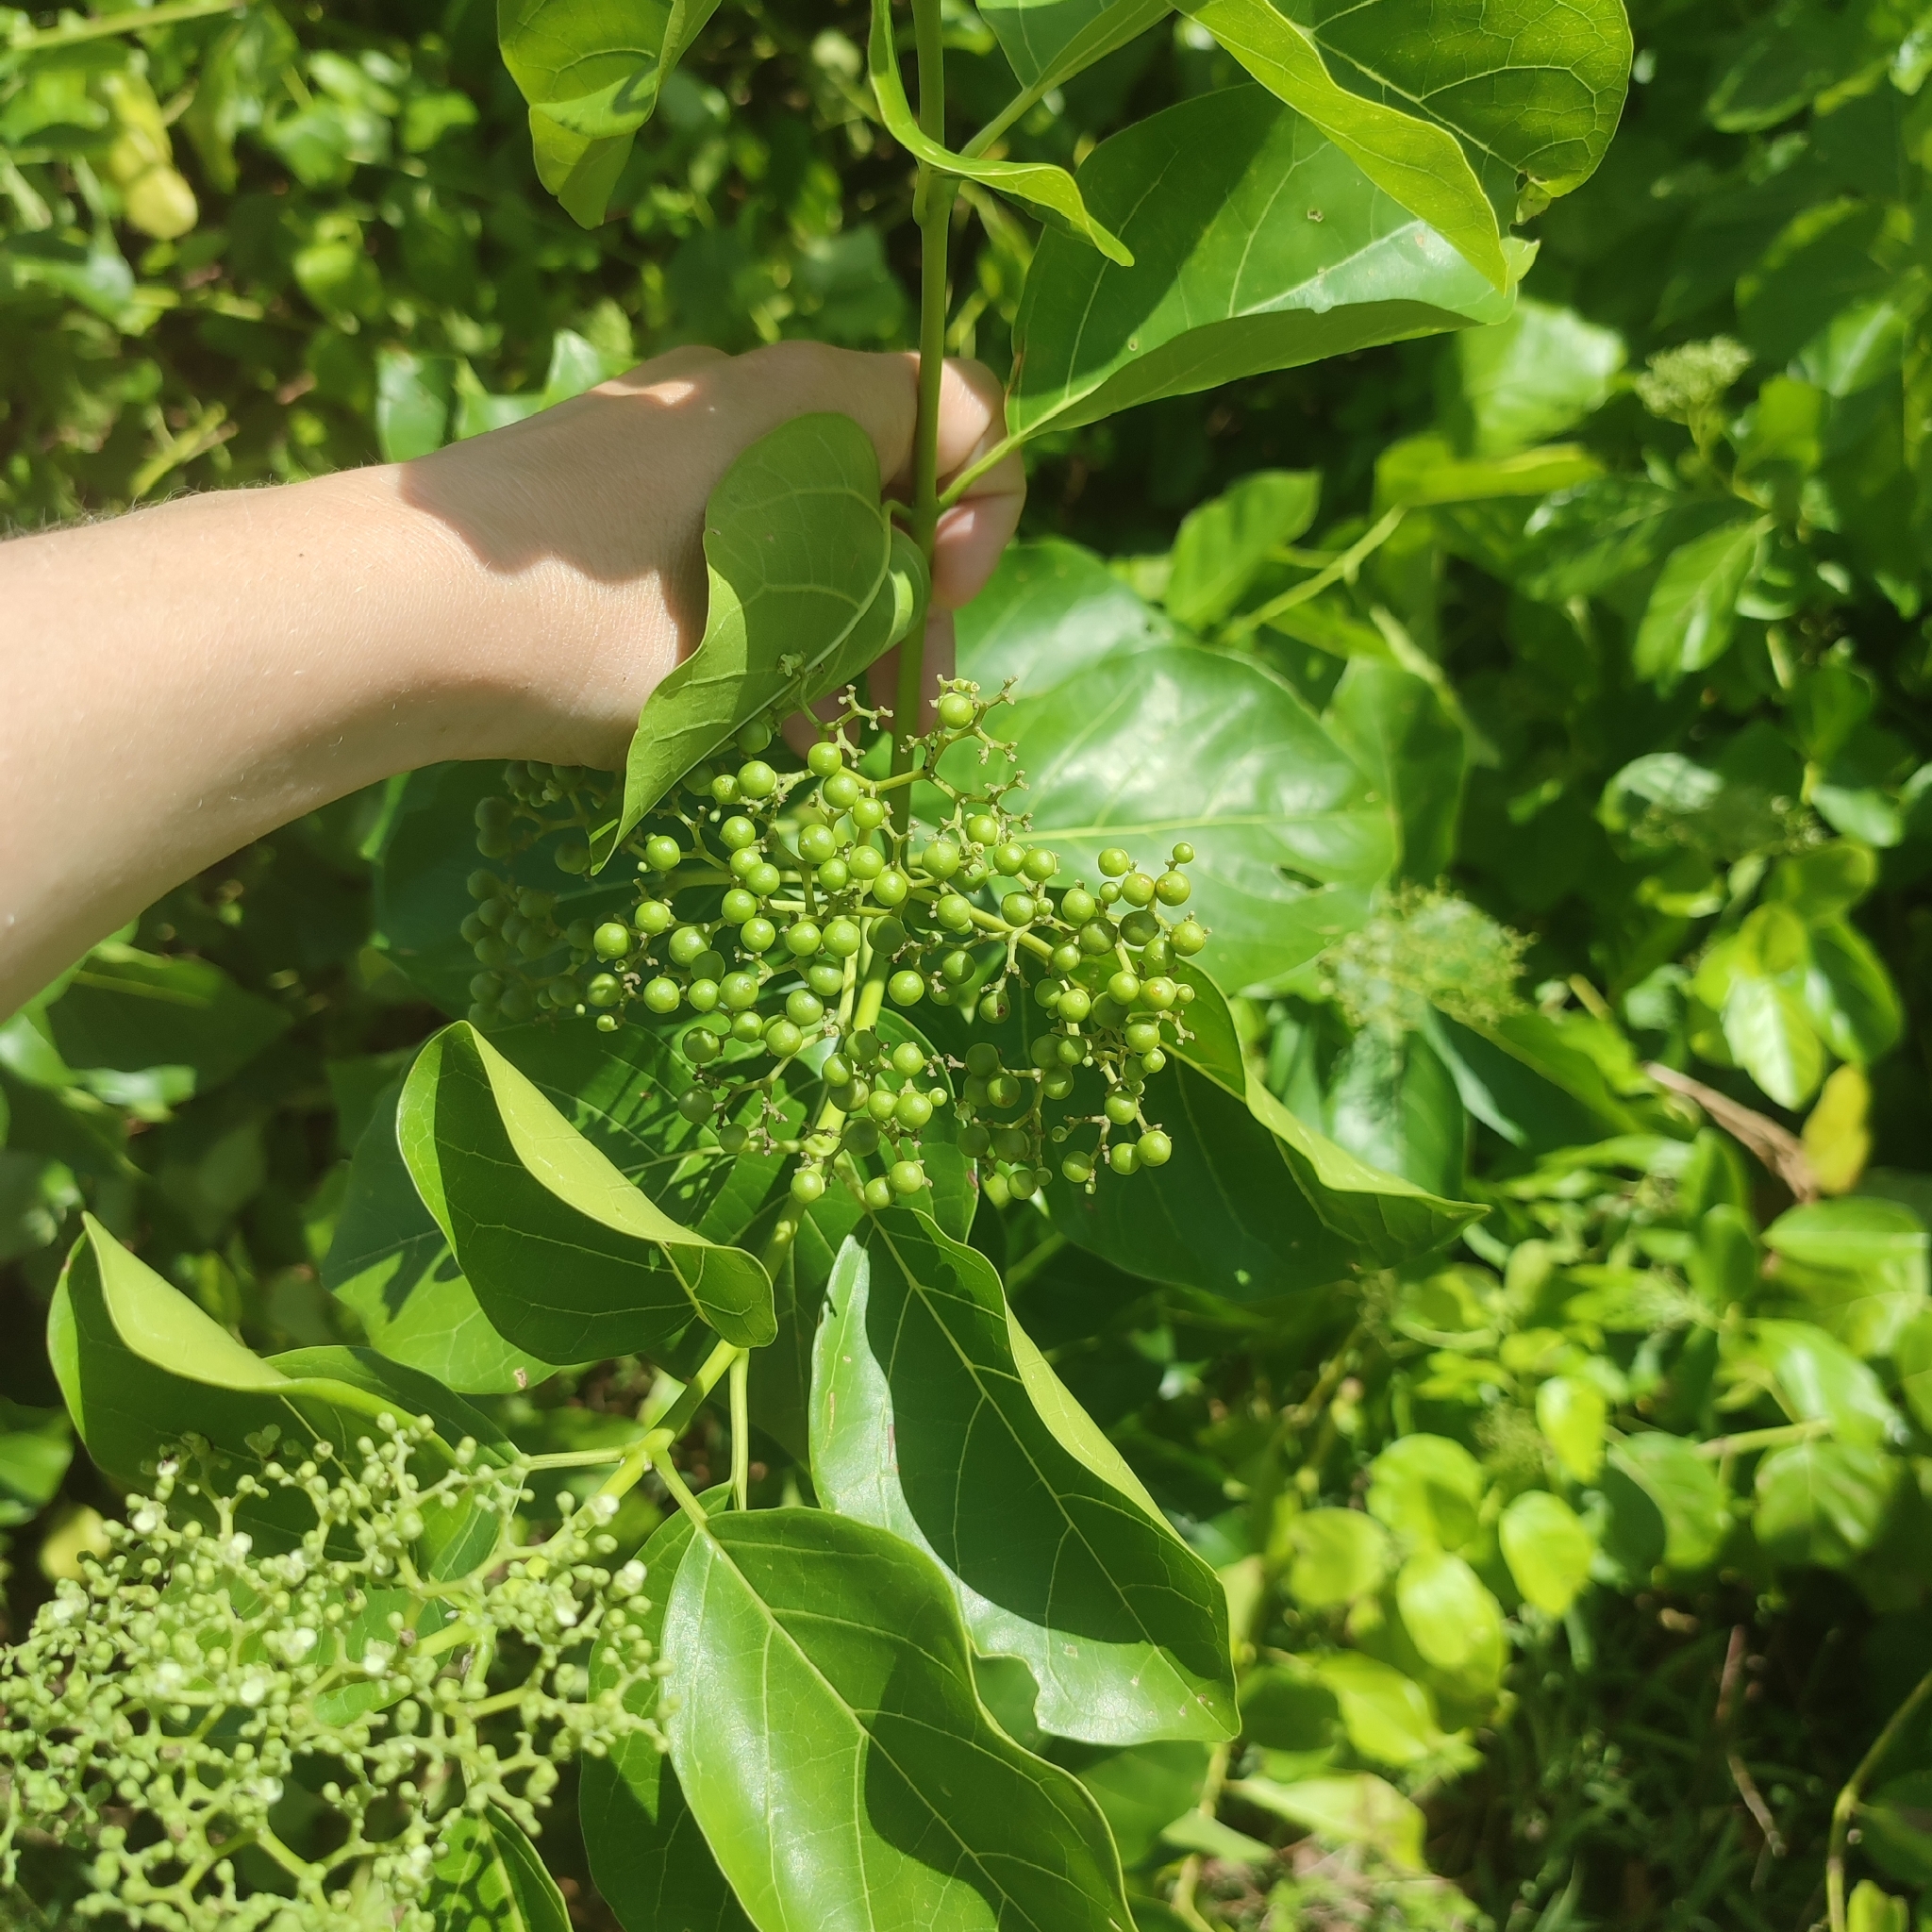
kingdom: Plantae
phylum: Tracheophyta
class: Magnoliopsida
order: Lamiales
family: Lamiaceae
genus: Premna
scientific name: Premna serratifolia
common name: Bastard guelder
